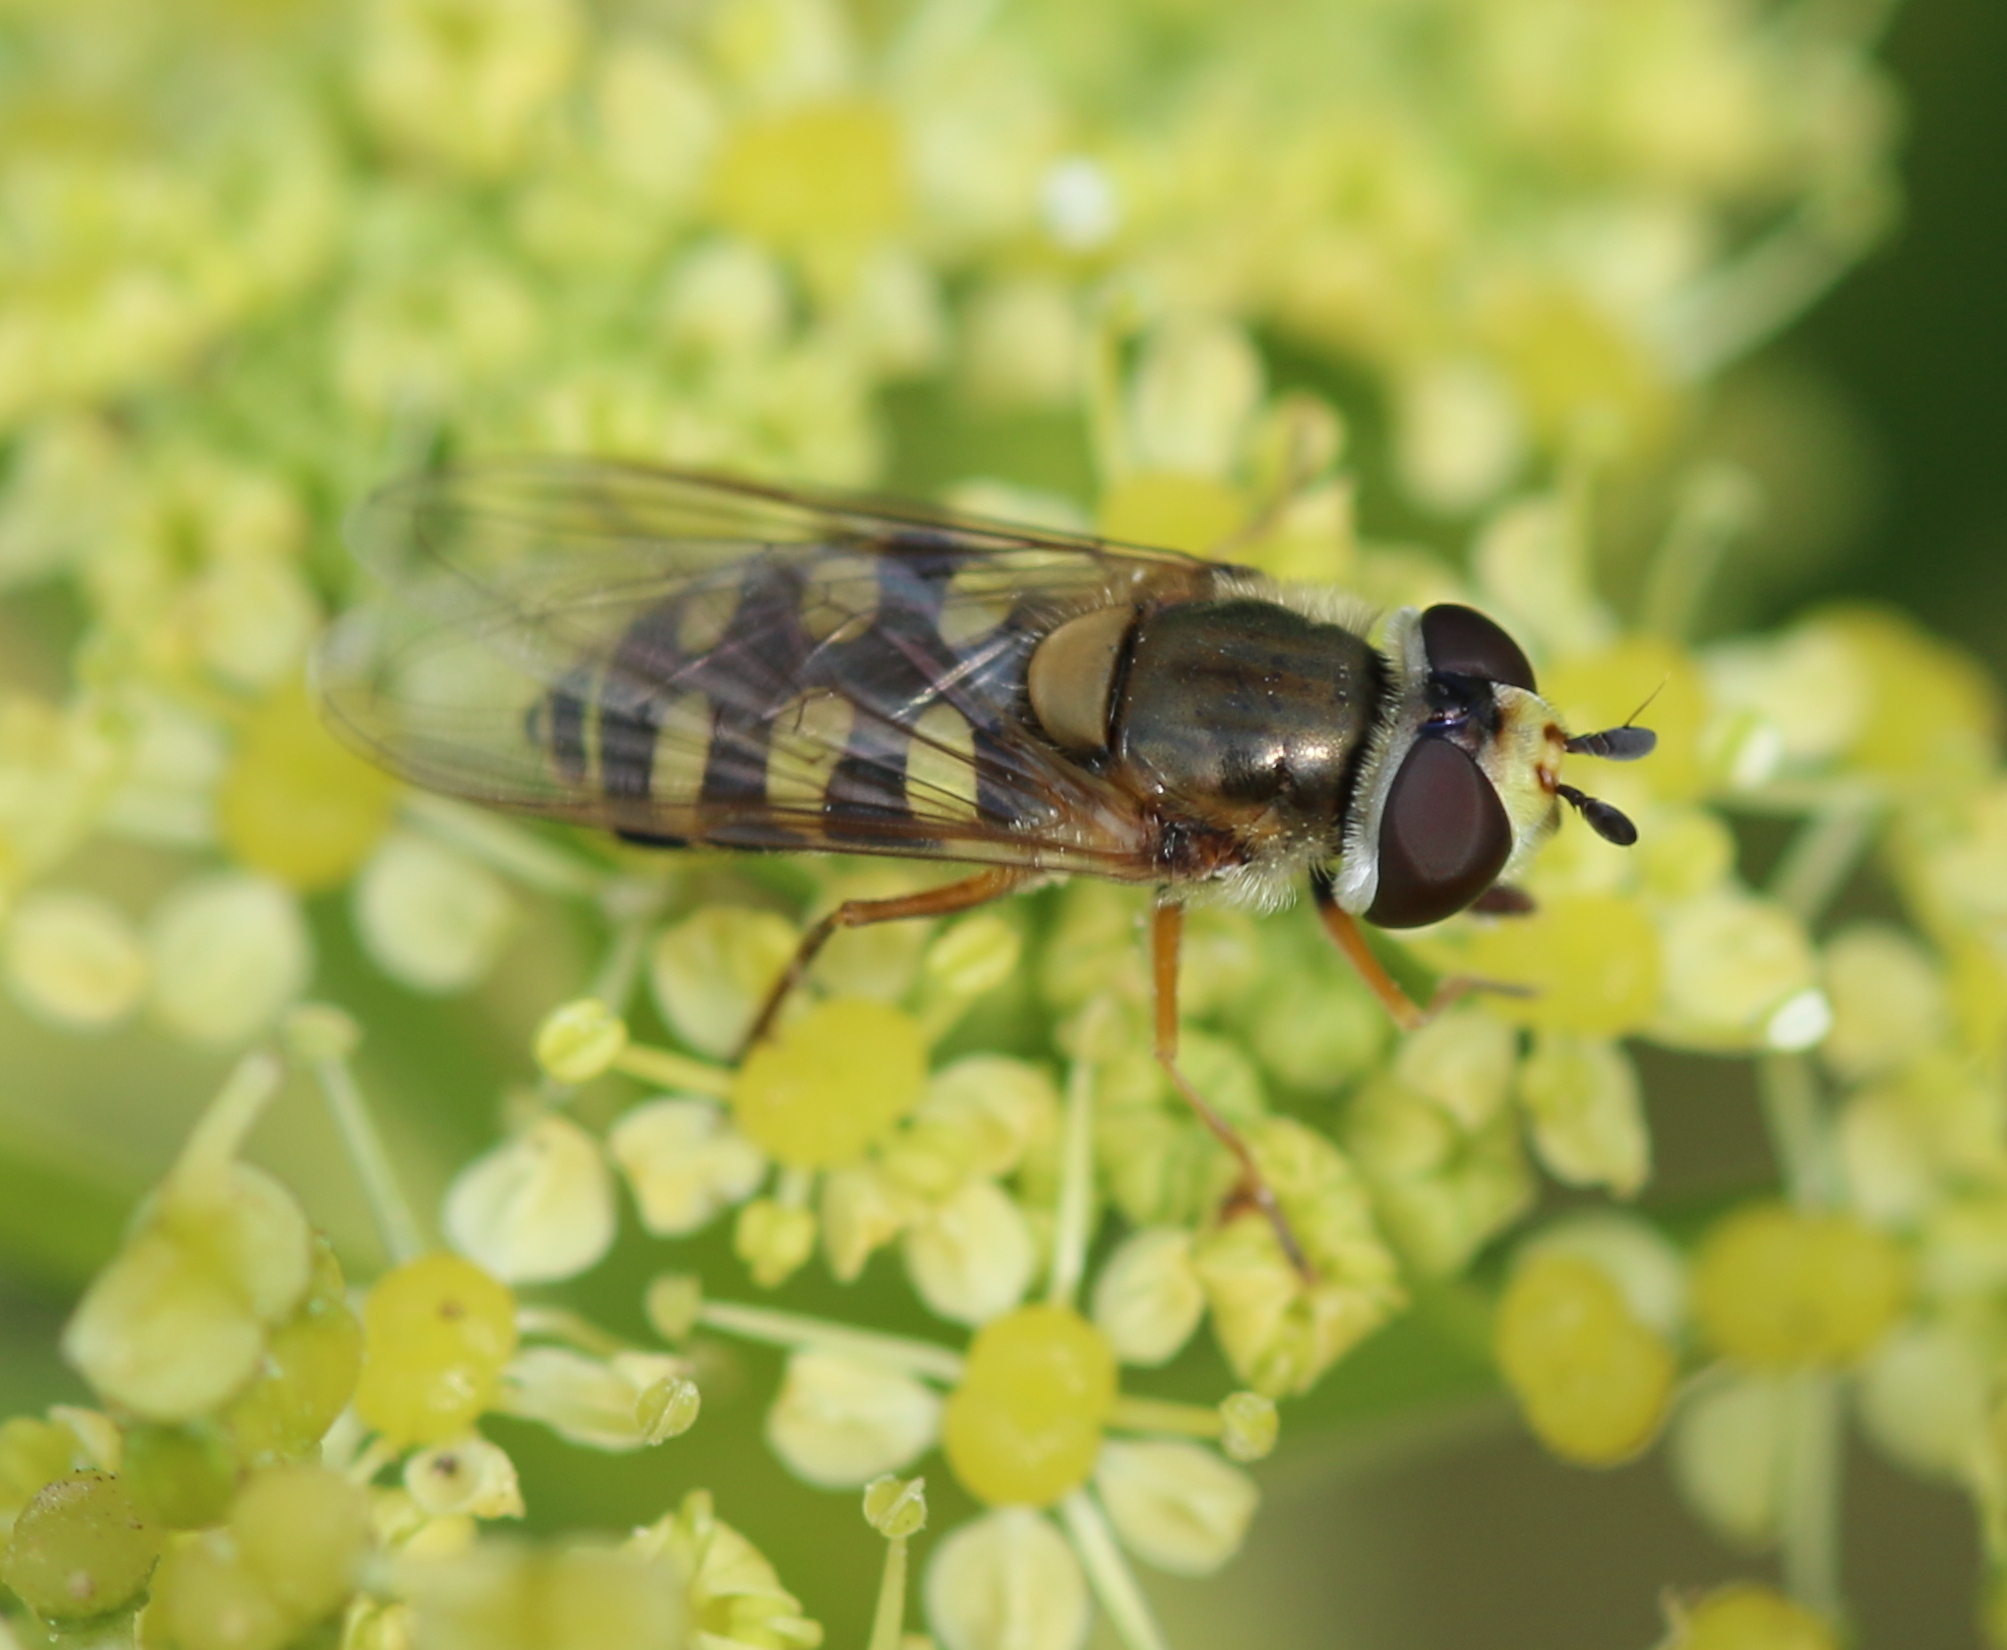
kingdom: Animalia
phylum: Arthropoda
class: Insecta
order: Diptera
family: Syrphidae
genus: Eupeodes
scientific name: Eupeodes corollae
